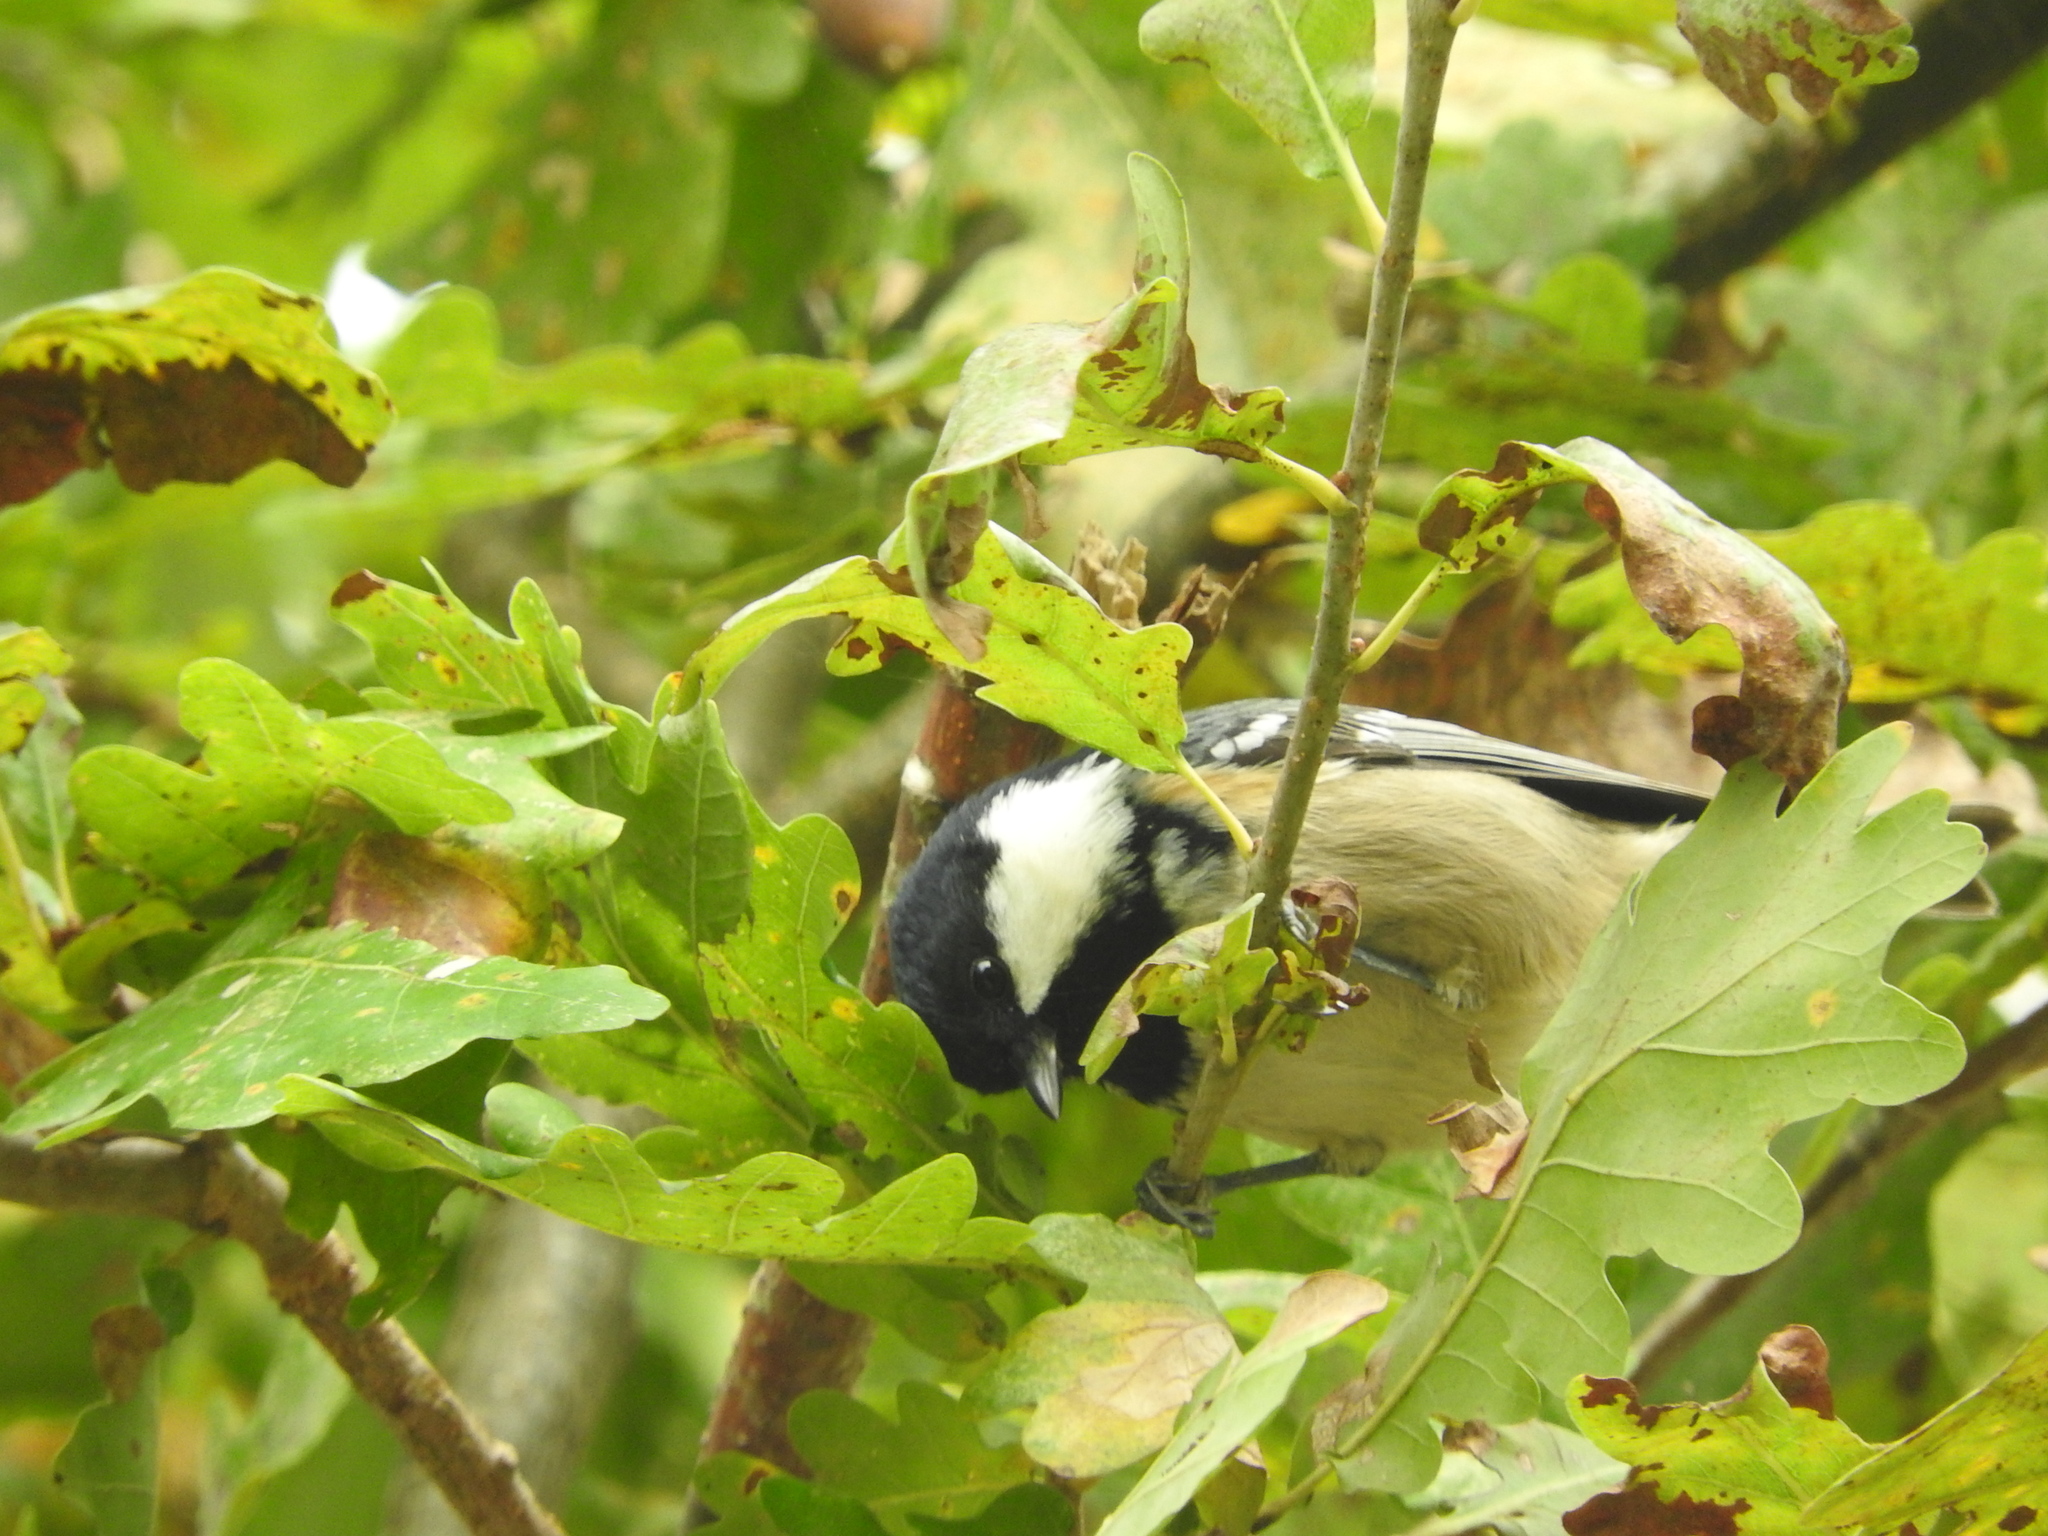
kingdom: Animalia
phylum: Chordata
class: Aves
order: Passeriformes
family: Paridae
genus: Periparus
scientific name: Periparus ater
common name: Coal tit
